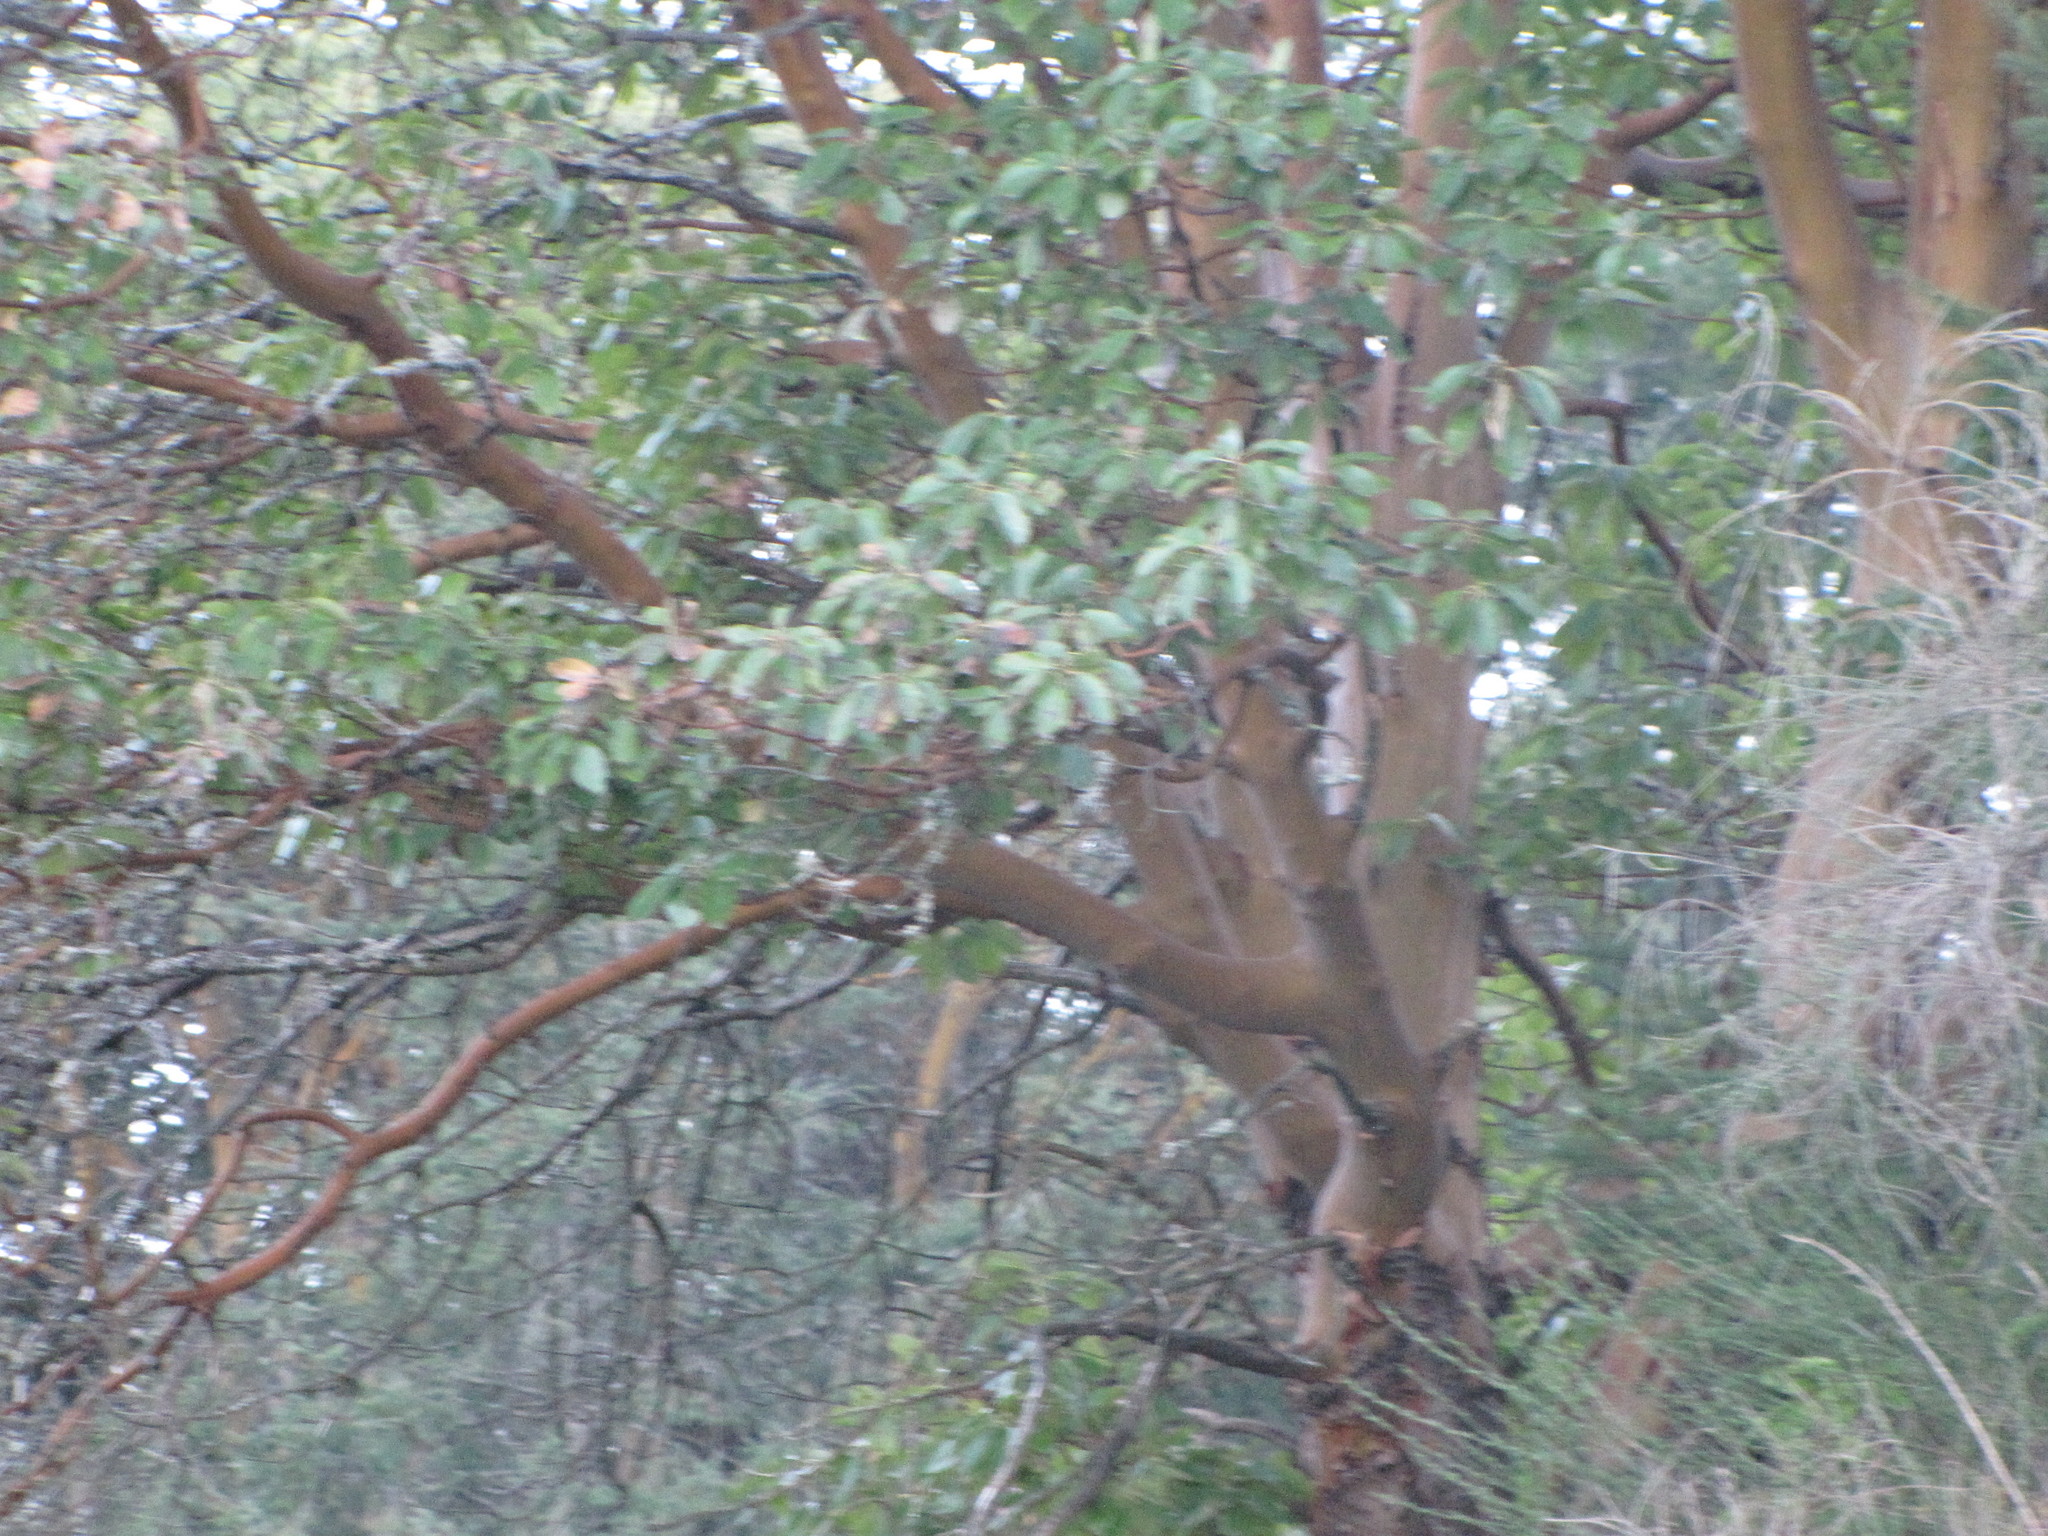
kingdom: Plantae
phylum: Tracheophyta
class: Magnoliopsida
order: Ericales
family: Ericaceae
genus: Arbutus
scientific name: Arbutus menziesii
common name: Pacific madrone
